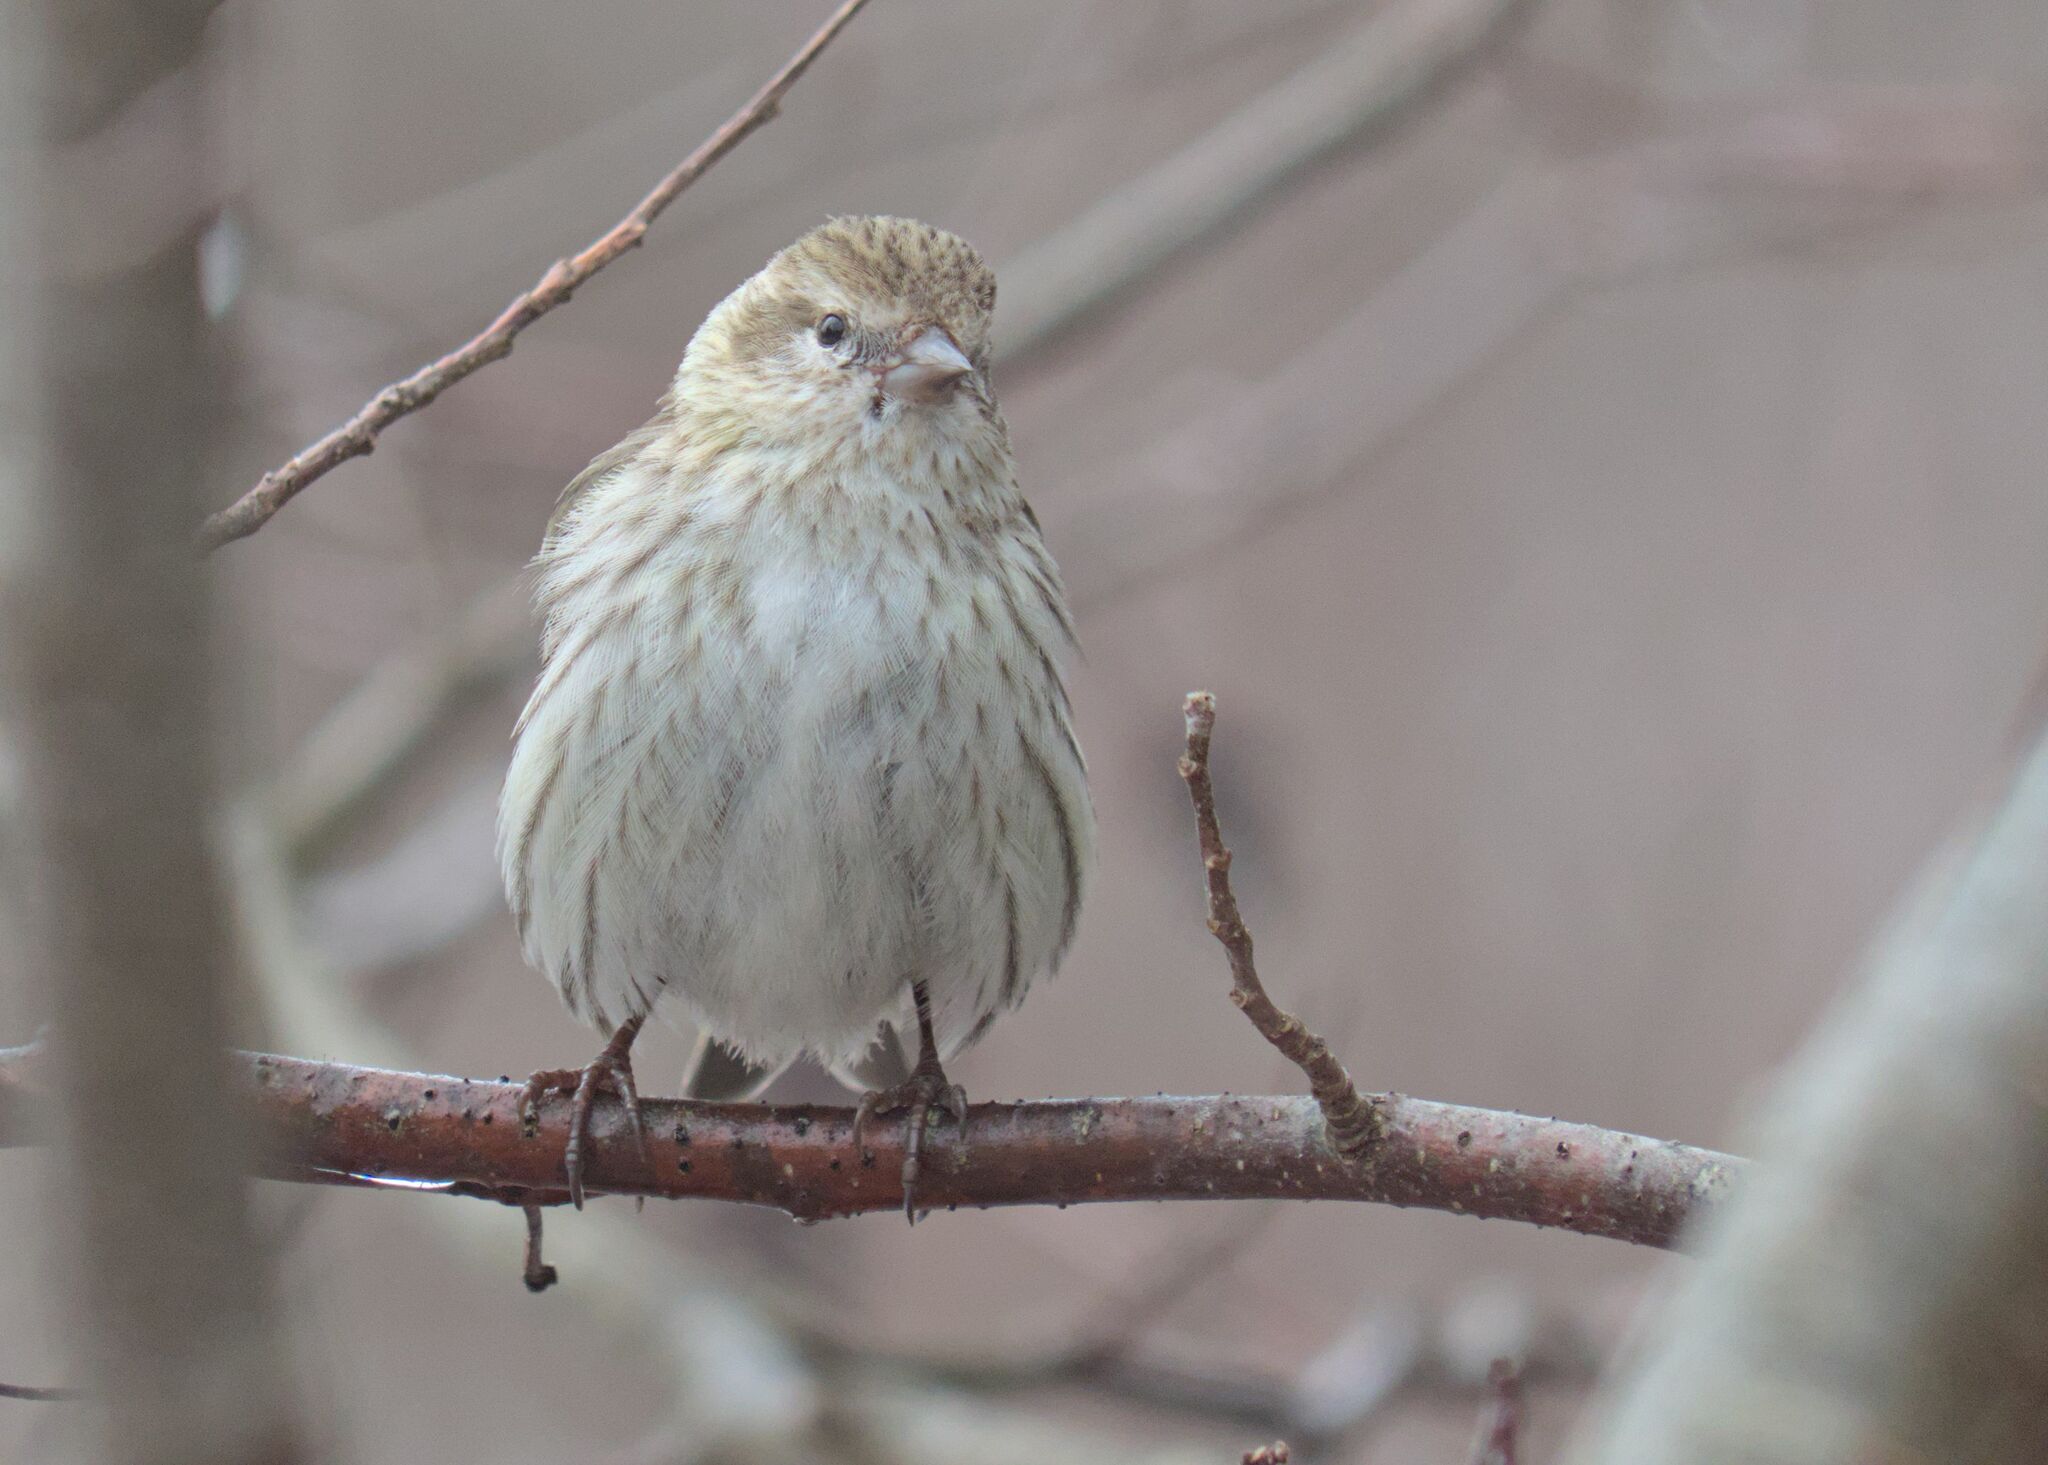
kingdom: Animalia
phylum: Chordata
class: Aves
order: Passeriformes
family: Fringillidae
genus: Spinus
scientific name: Spinus pinus
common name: Pine siskin
